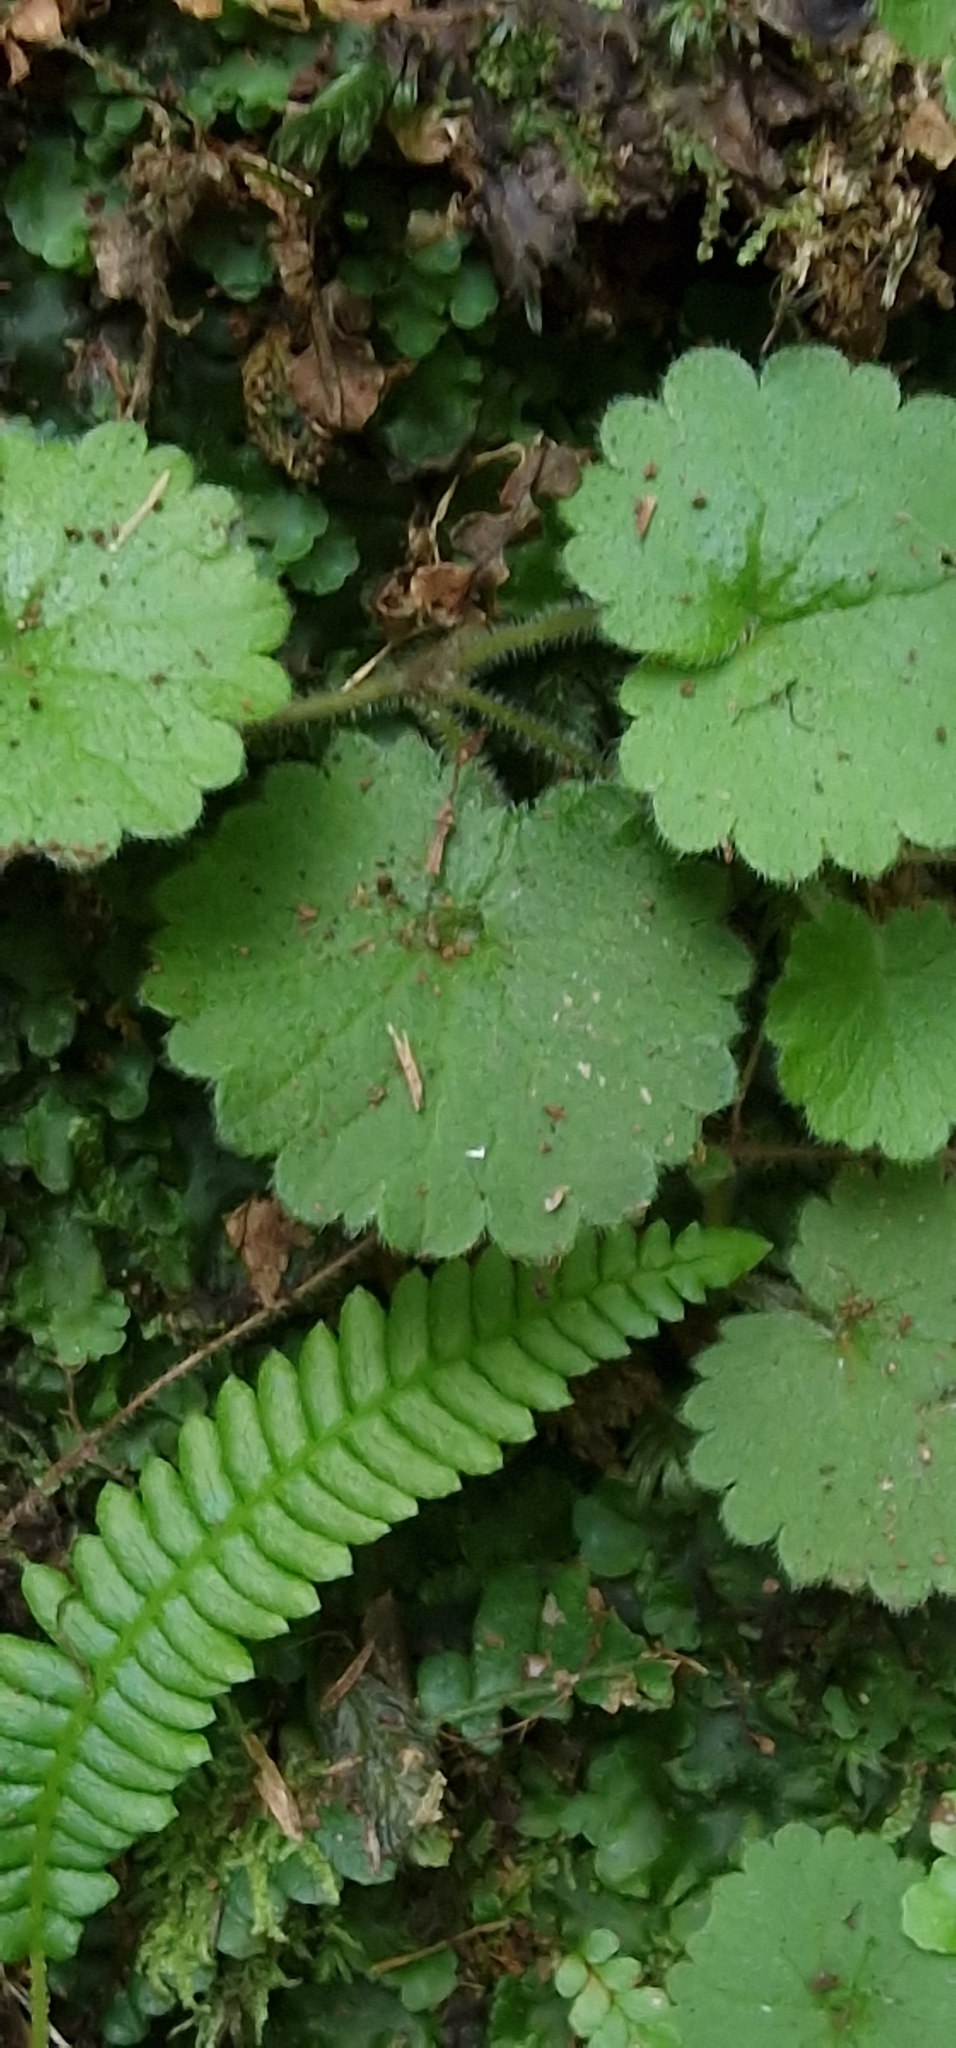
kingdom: Plantae
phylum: Tracheophyta
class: Magnoliopsida
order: Lamiales
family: Plantaginaceae
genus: Sibthorpia
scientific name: Sibthorpia peregrina
